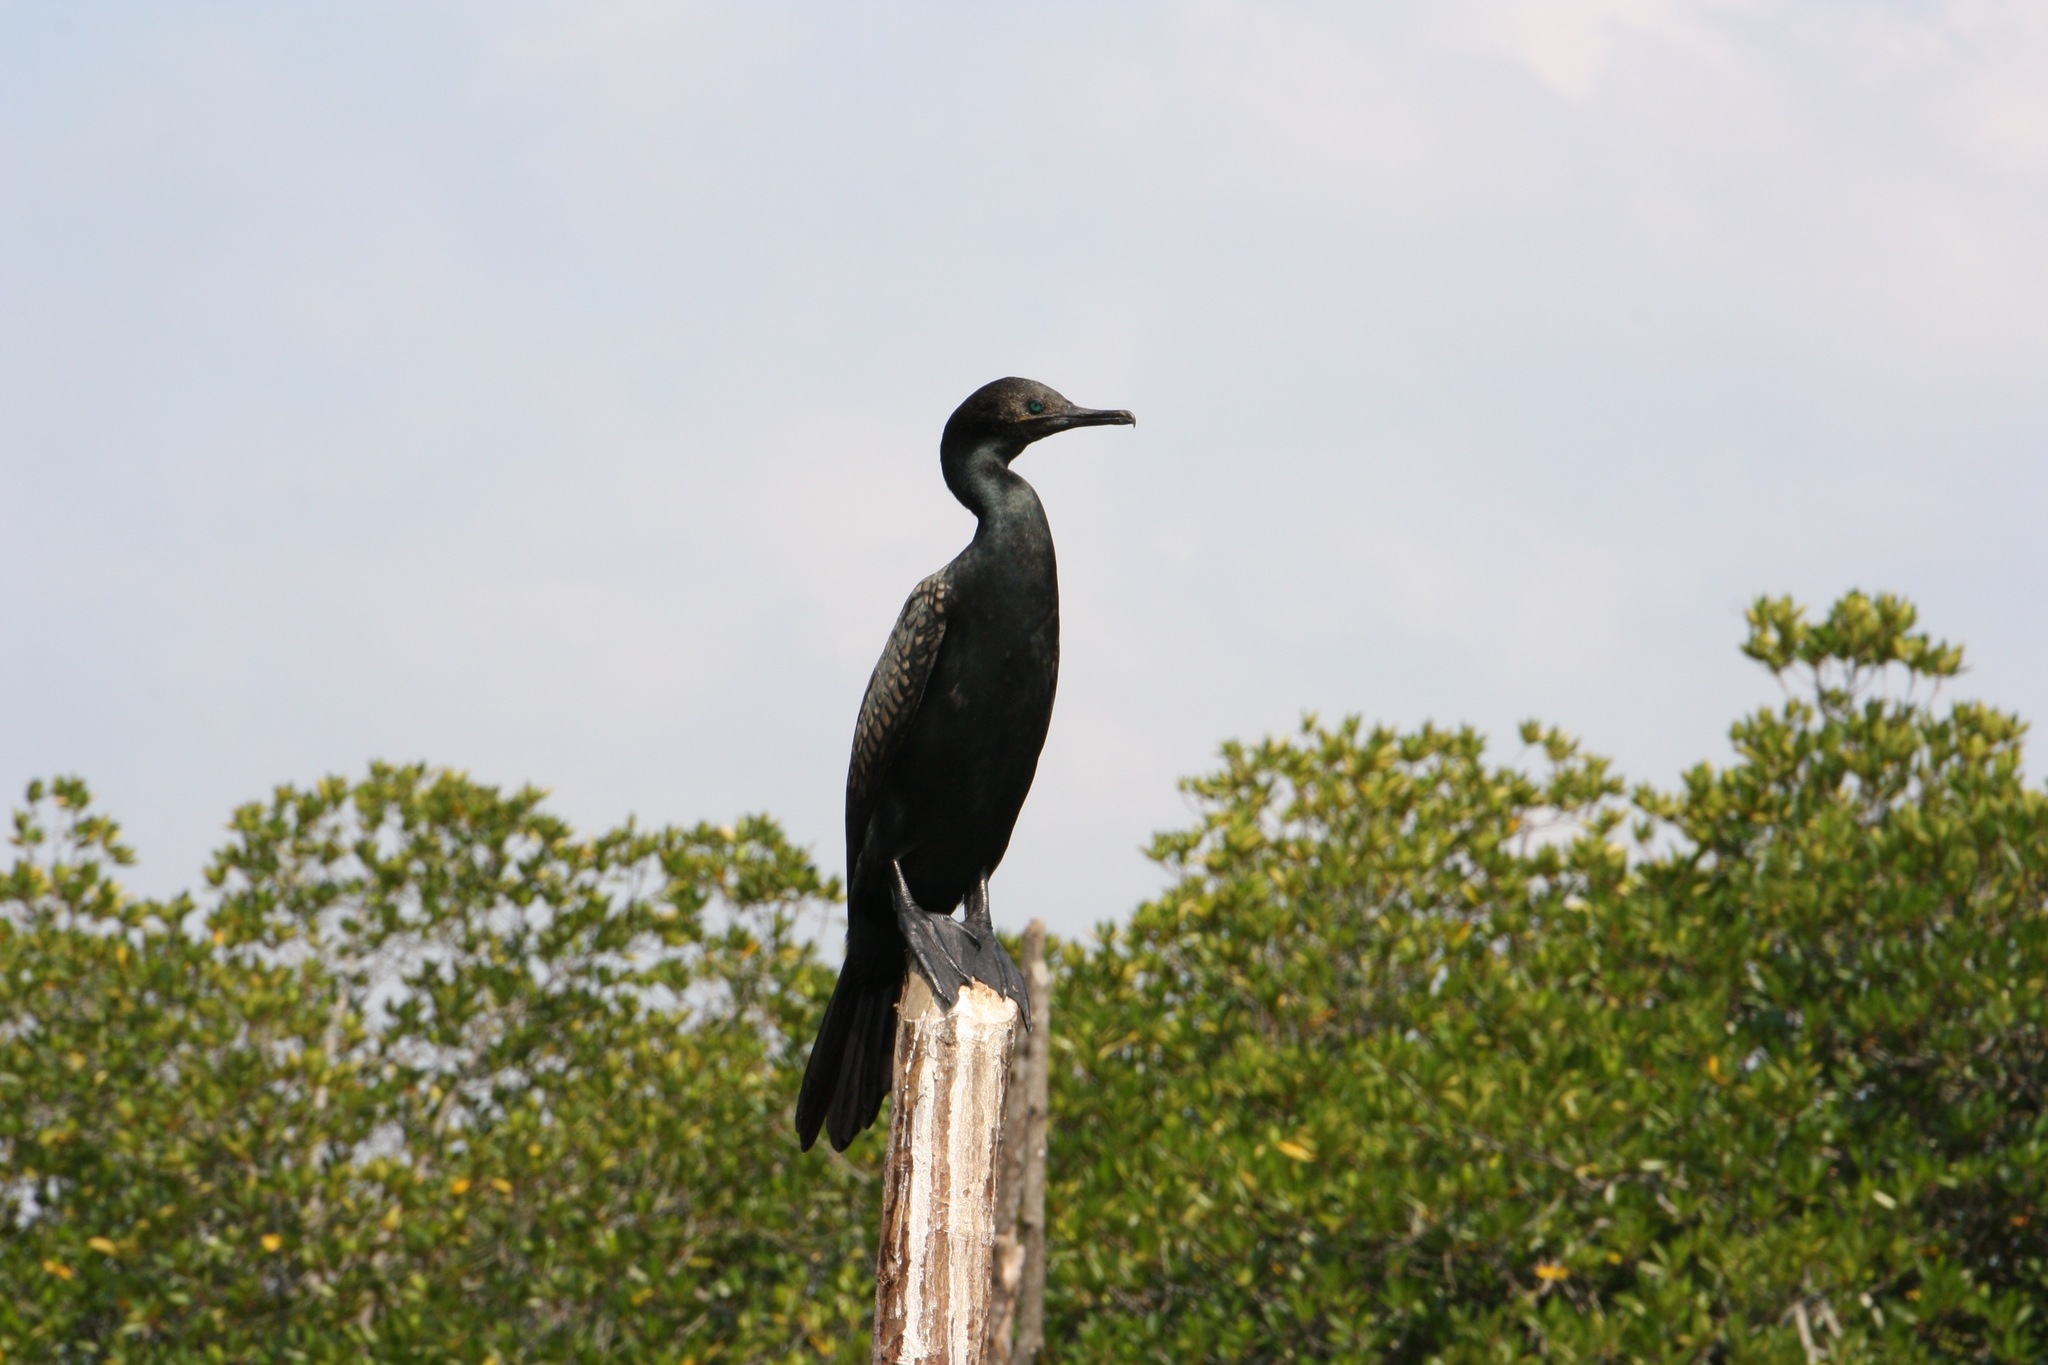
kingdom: Animalia
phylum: Chordata
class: Aves
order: Suliformes
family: Phalacrocoracidae
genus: Microcarbo
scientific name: Microcarbo niger
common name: Little cormorant
